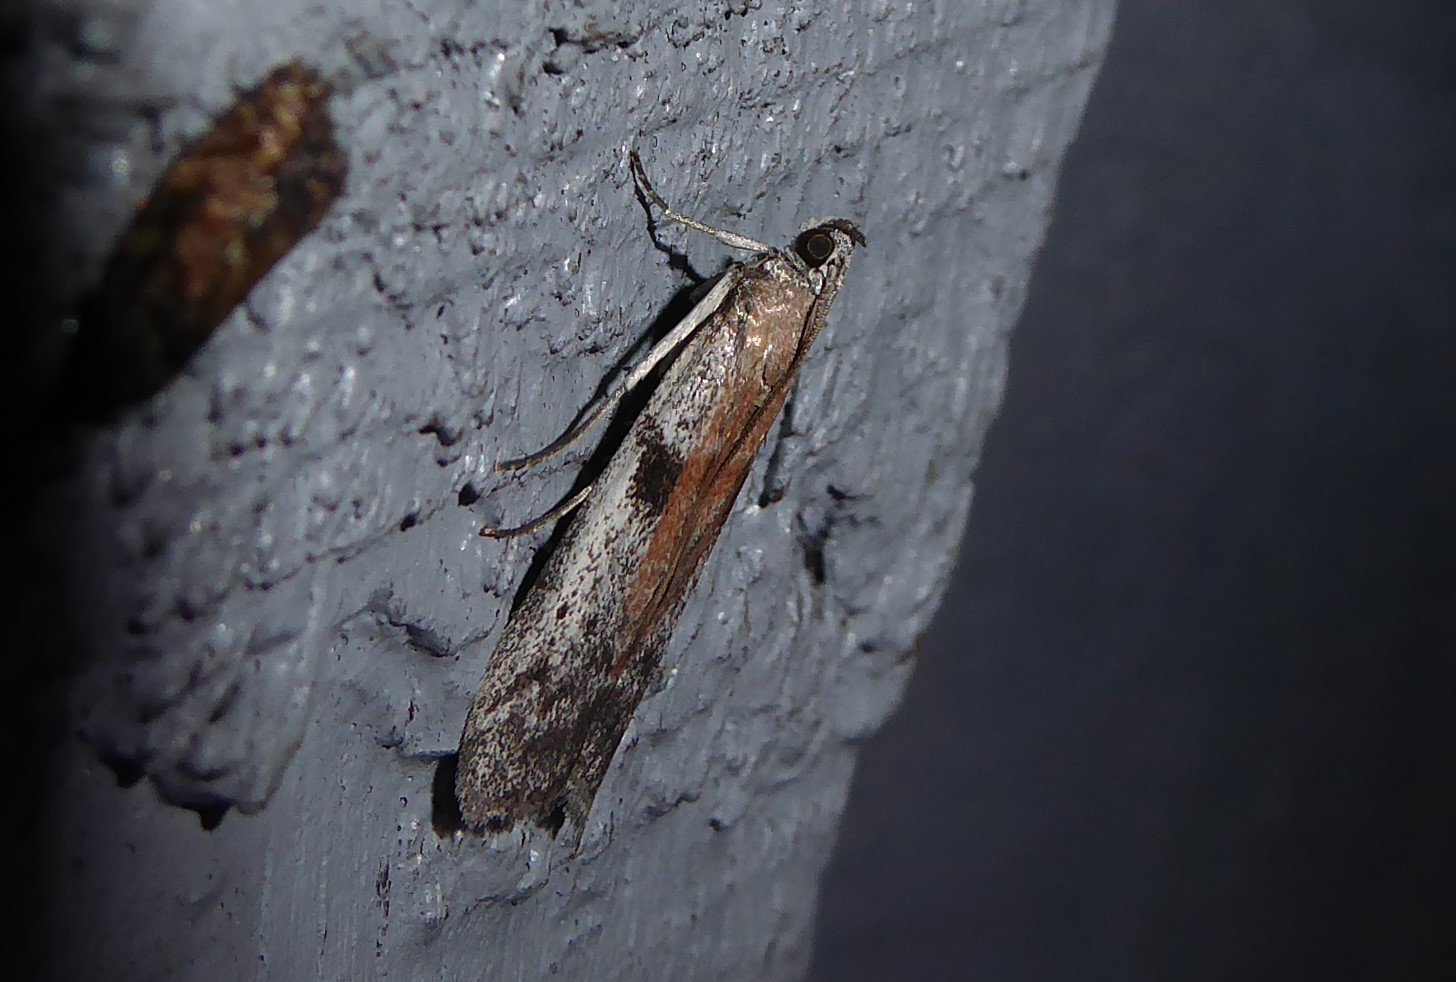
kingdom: Animalia
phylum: Arthropoda
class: Insecta
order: Lepidoptera
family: Pyralidae
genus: Patagoniodes
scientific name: Patagoniodes farinaria
